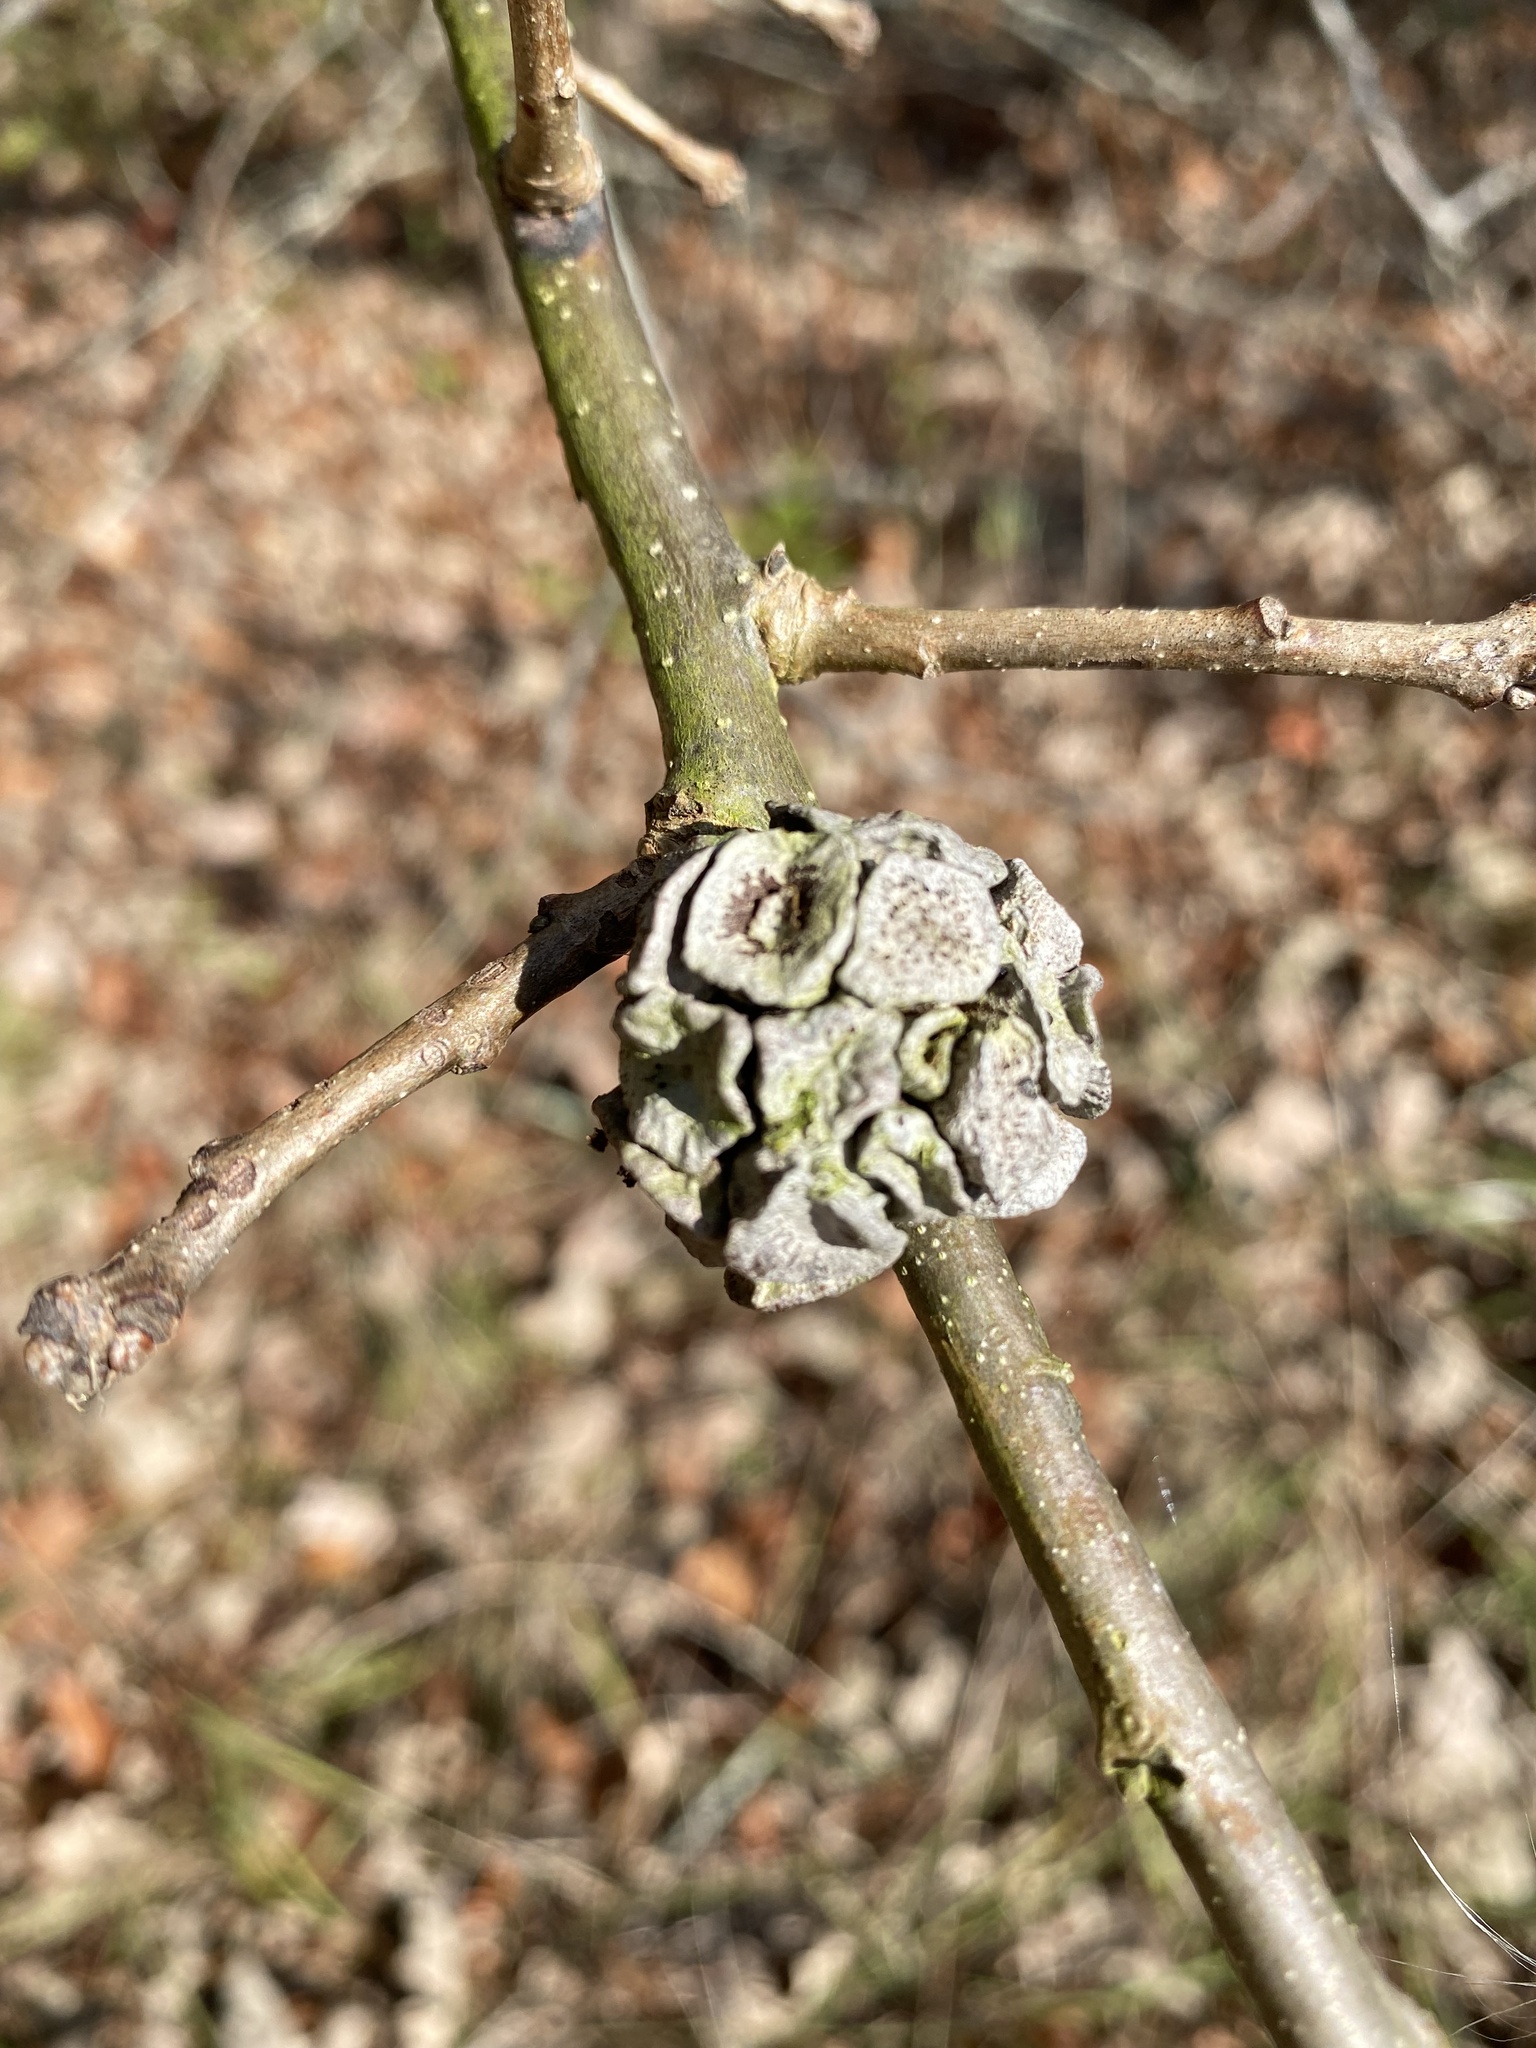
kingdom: Animalia
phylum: Arthropoda
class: Insecta
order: Hymenoptera
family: Cynipidae
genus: Andricus
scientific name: Andricus
